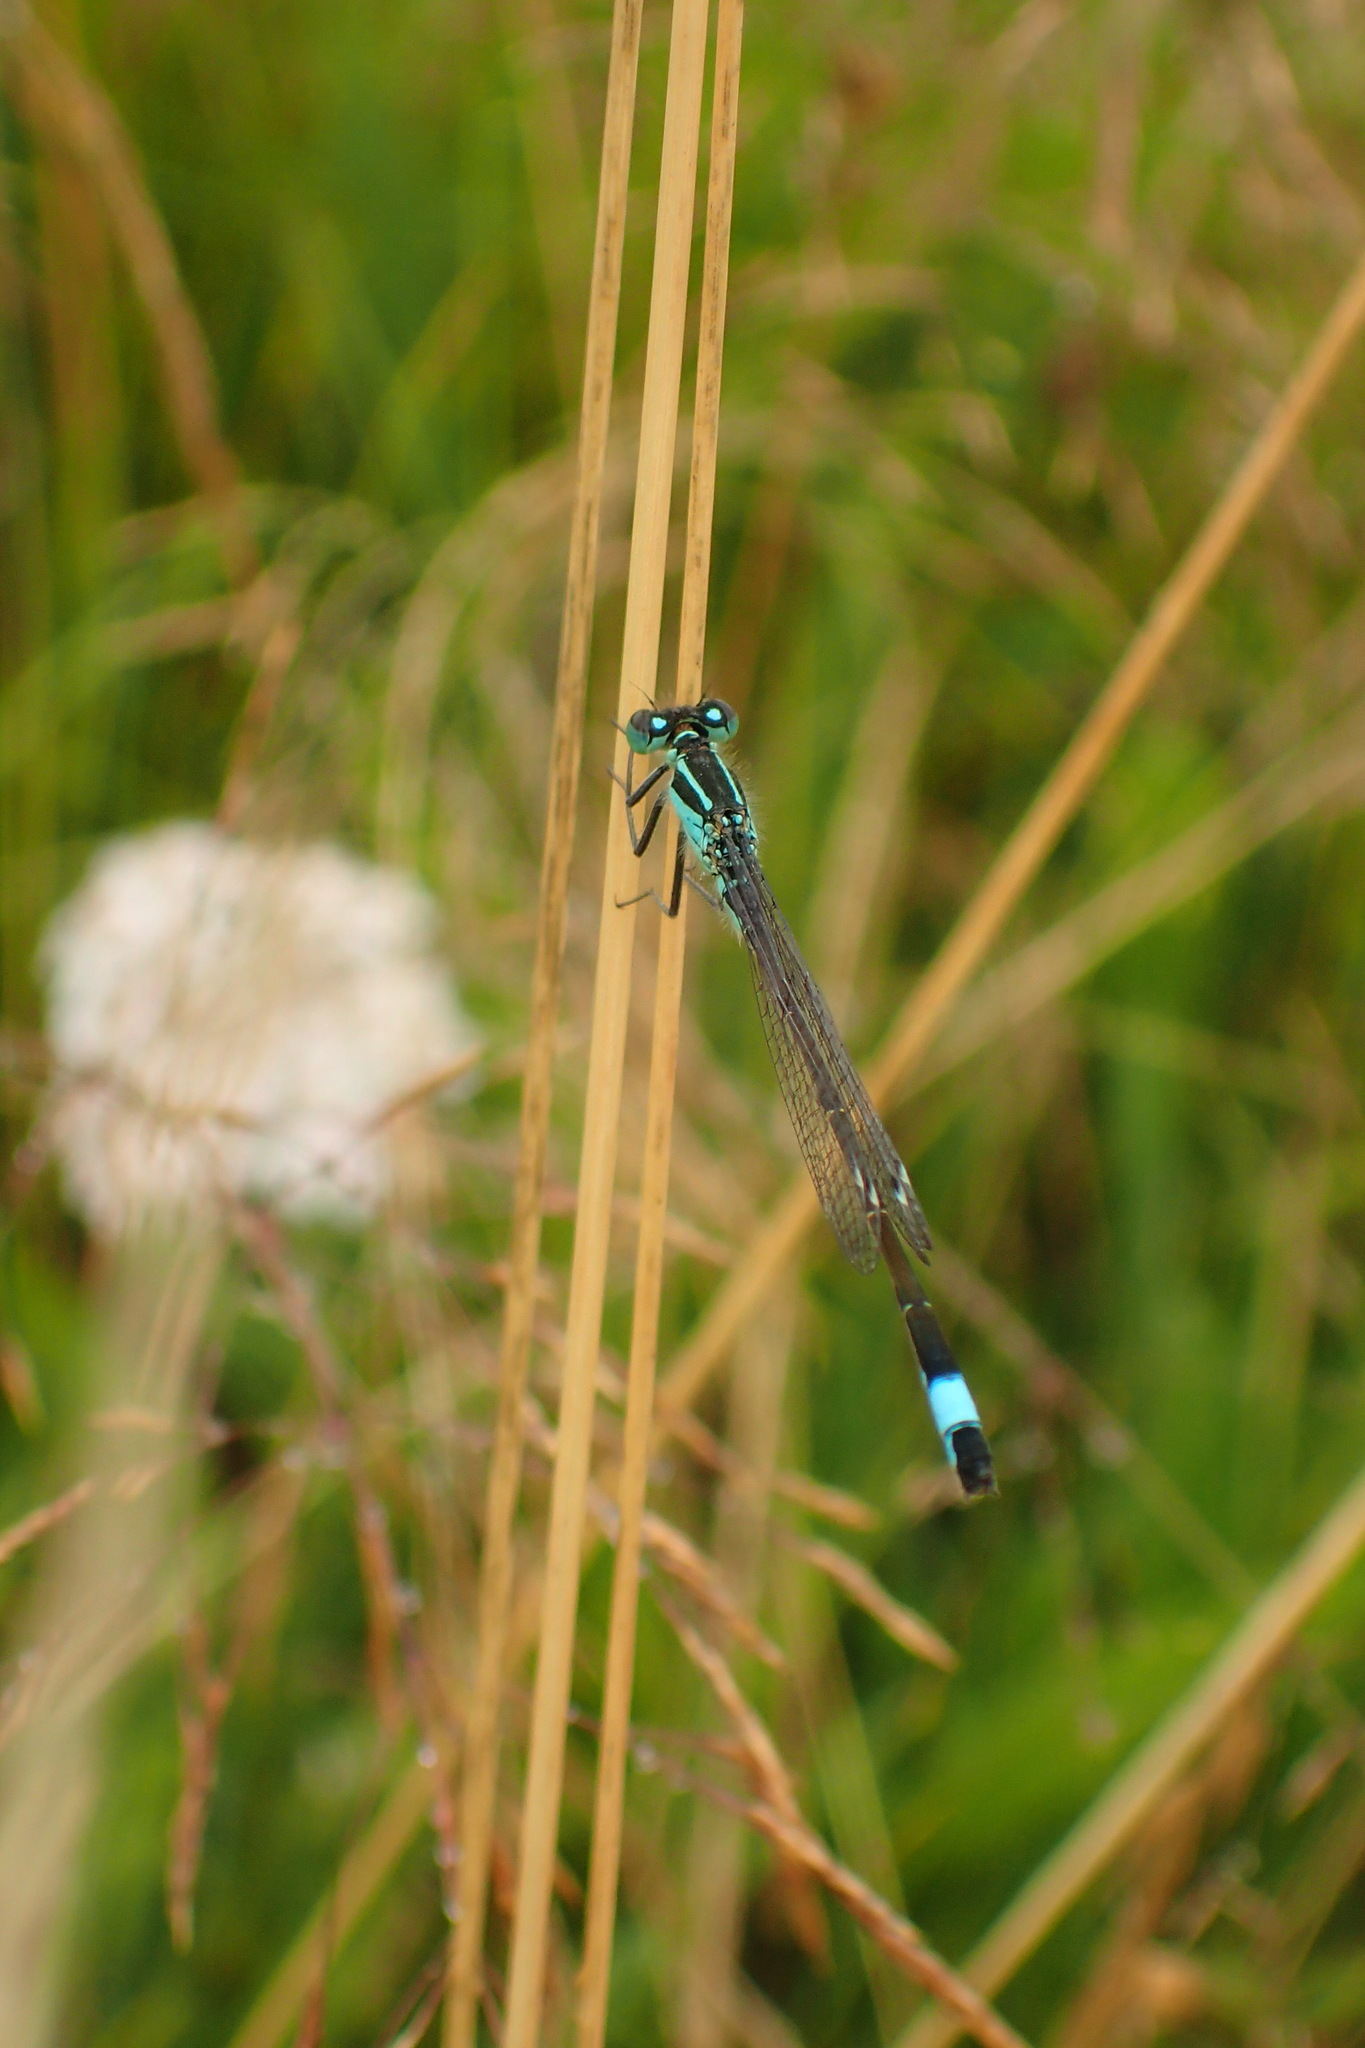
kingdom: Animalia
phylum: Arthropoda
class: Insecta
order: Odonata
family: Coenagrionidae
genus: Ischnura
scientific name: Ischnura elegans
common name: Blue-tailed damselfly
